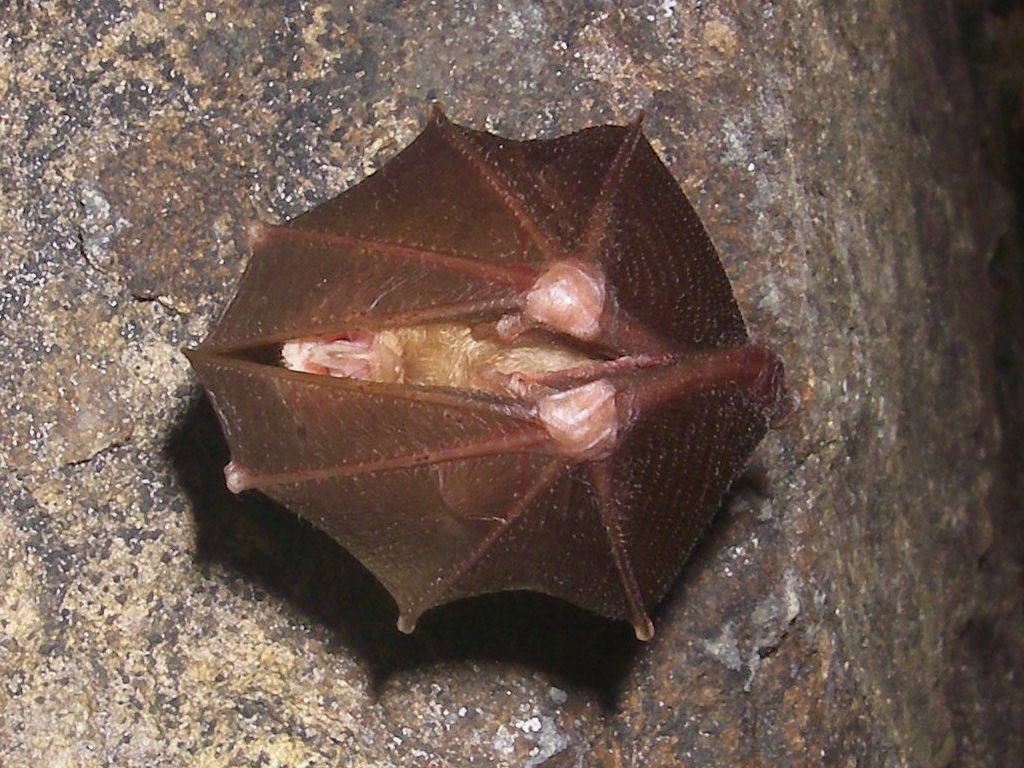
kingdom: Animalia
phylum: Chordata
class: Mammalia
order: Chiroptera
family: Rhinolophidae
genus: Rhinolophus
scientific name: Rhinolophus hipposideros
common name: Lesser horseshoe bat
